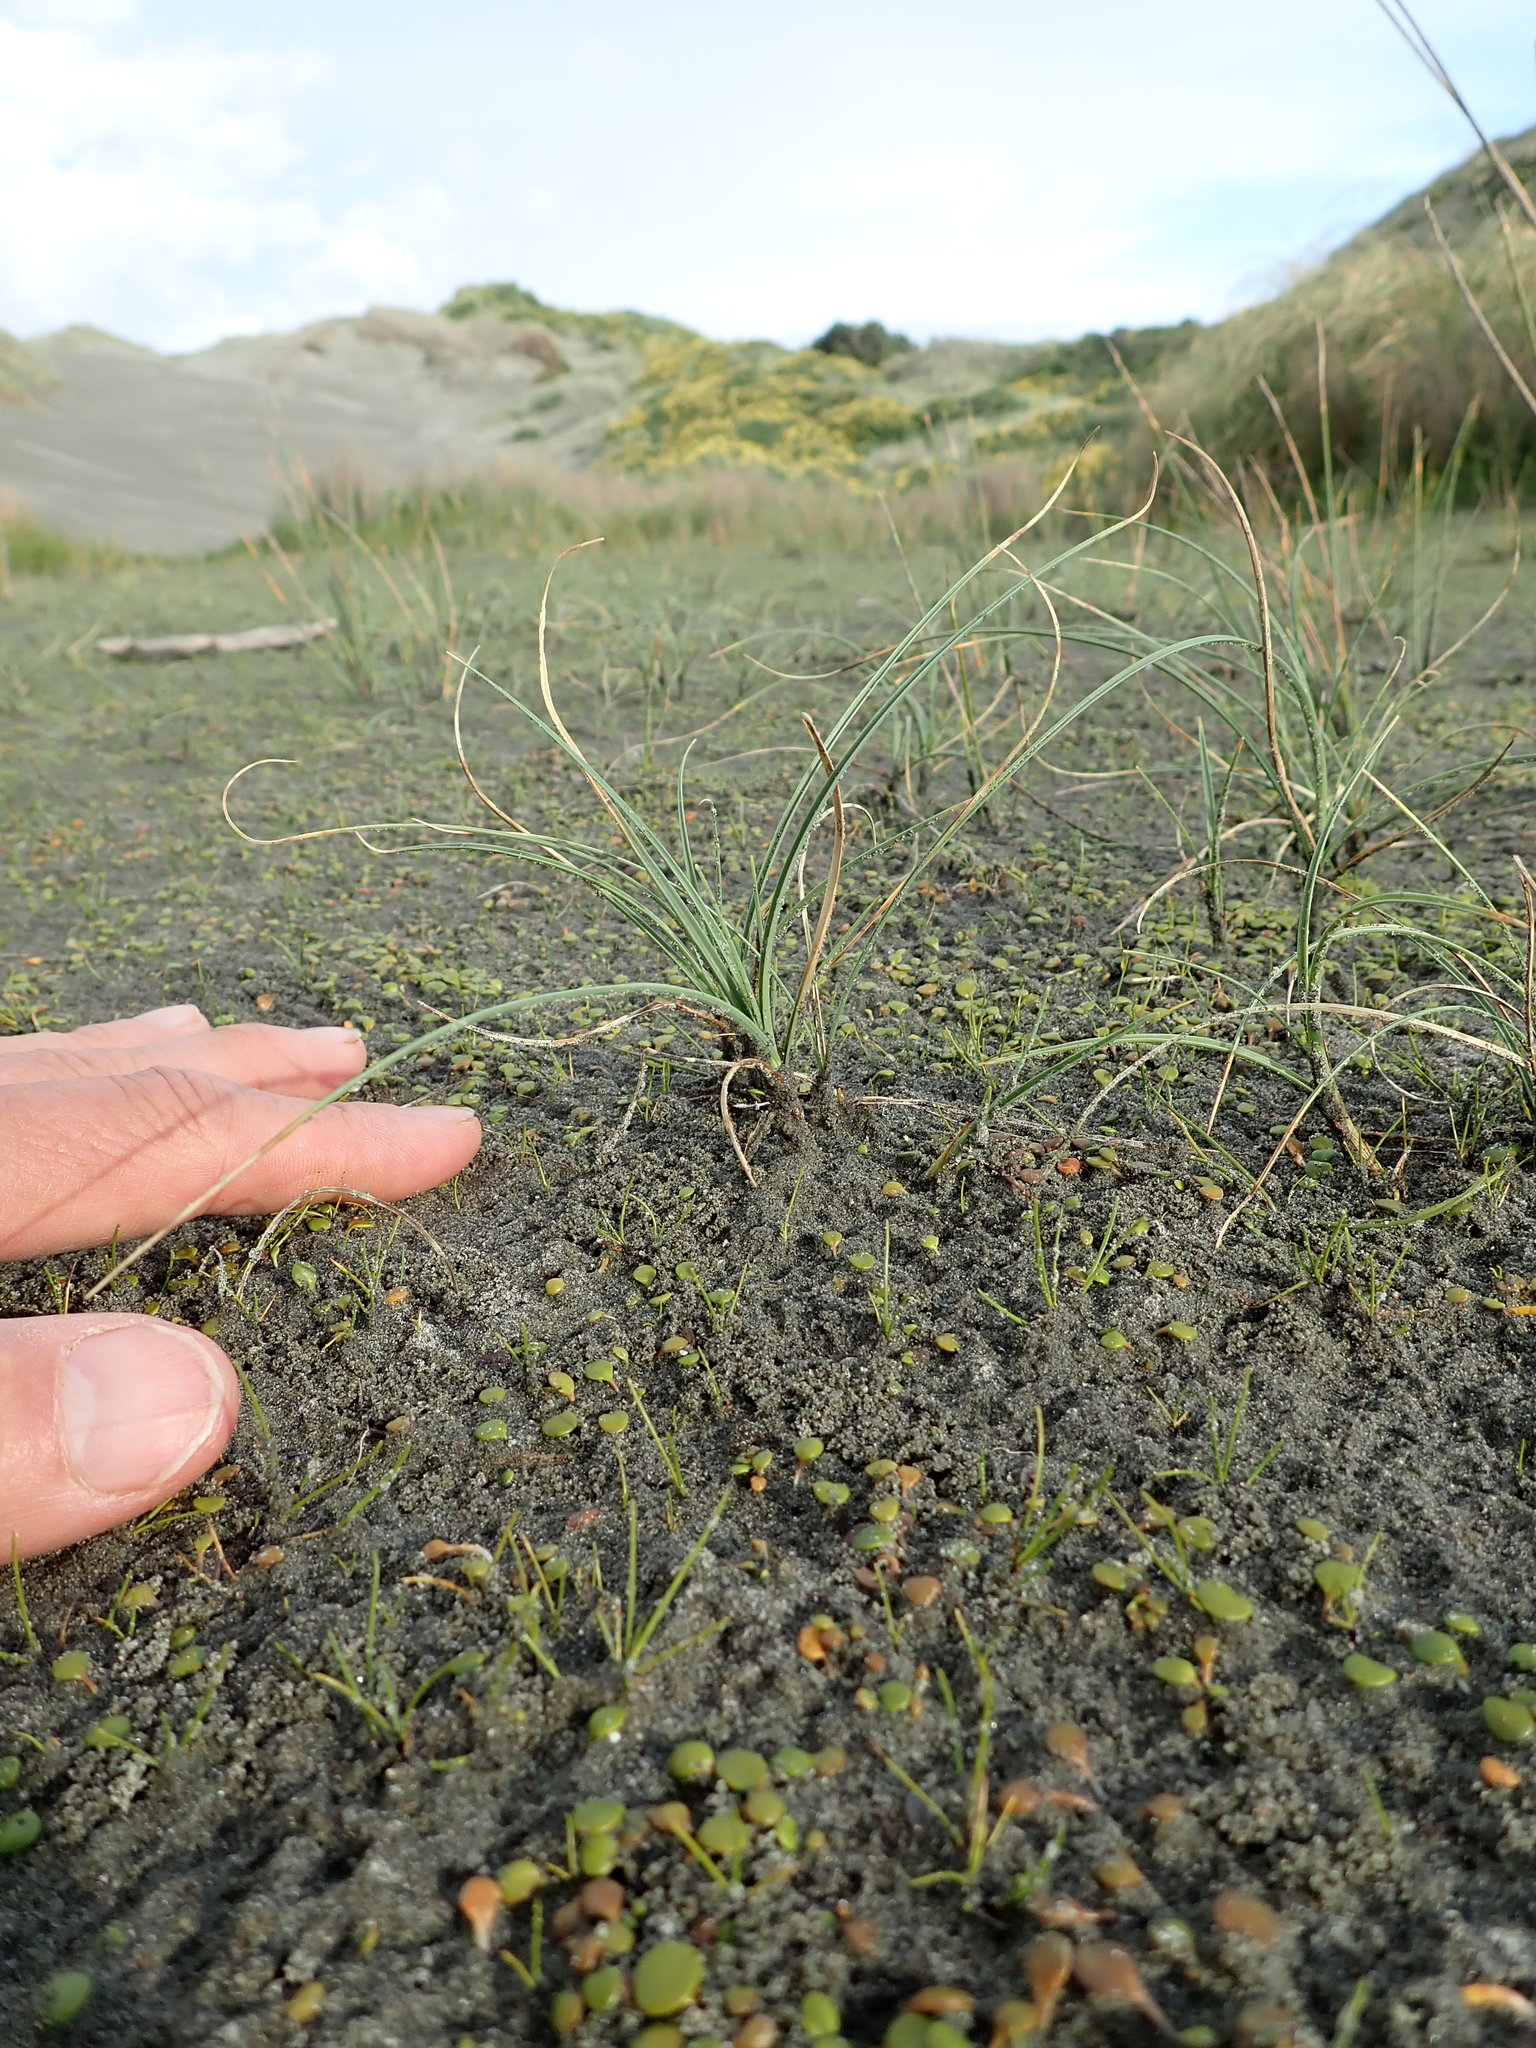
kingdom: Plantae
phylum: Tracheophyta
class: Liliopsida
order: Poales
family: Cyperaceae
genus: Carex
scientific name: Carex pumila
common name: Dwarf sedge
